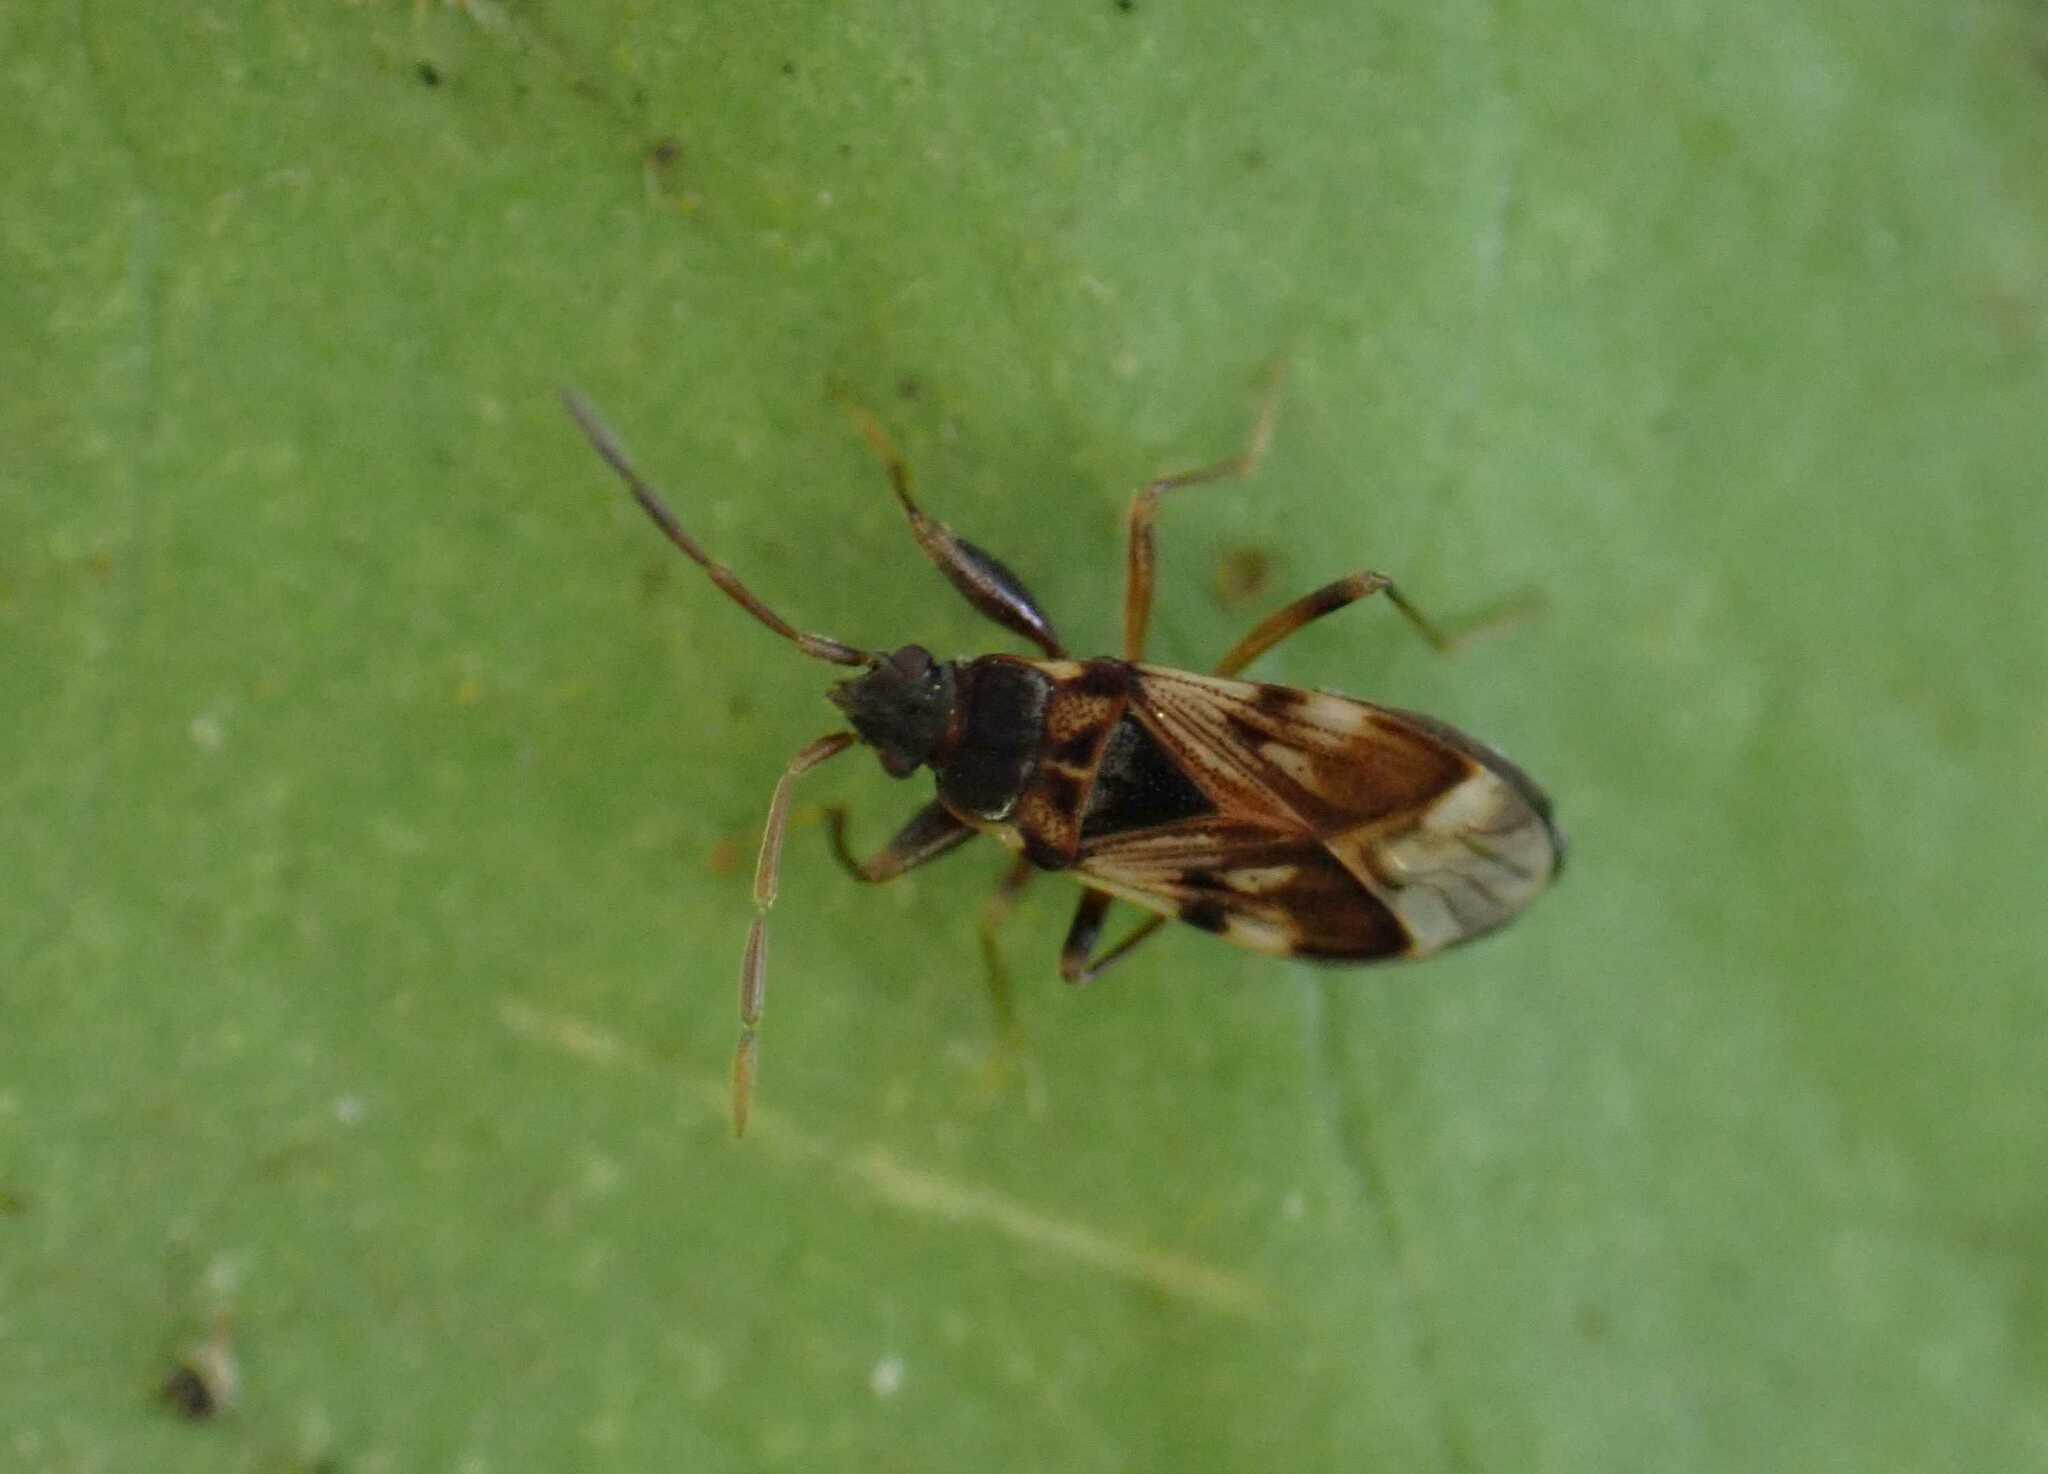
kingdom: Animalia
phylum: Arthropoda
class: Insecta
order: Hemiptera
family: Rhyparochromidae
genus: Scolopostethus
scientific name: Scolopostethus pictus
